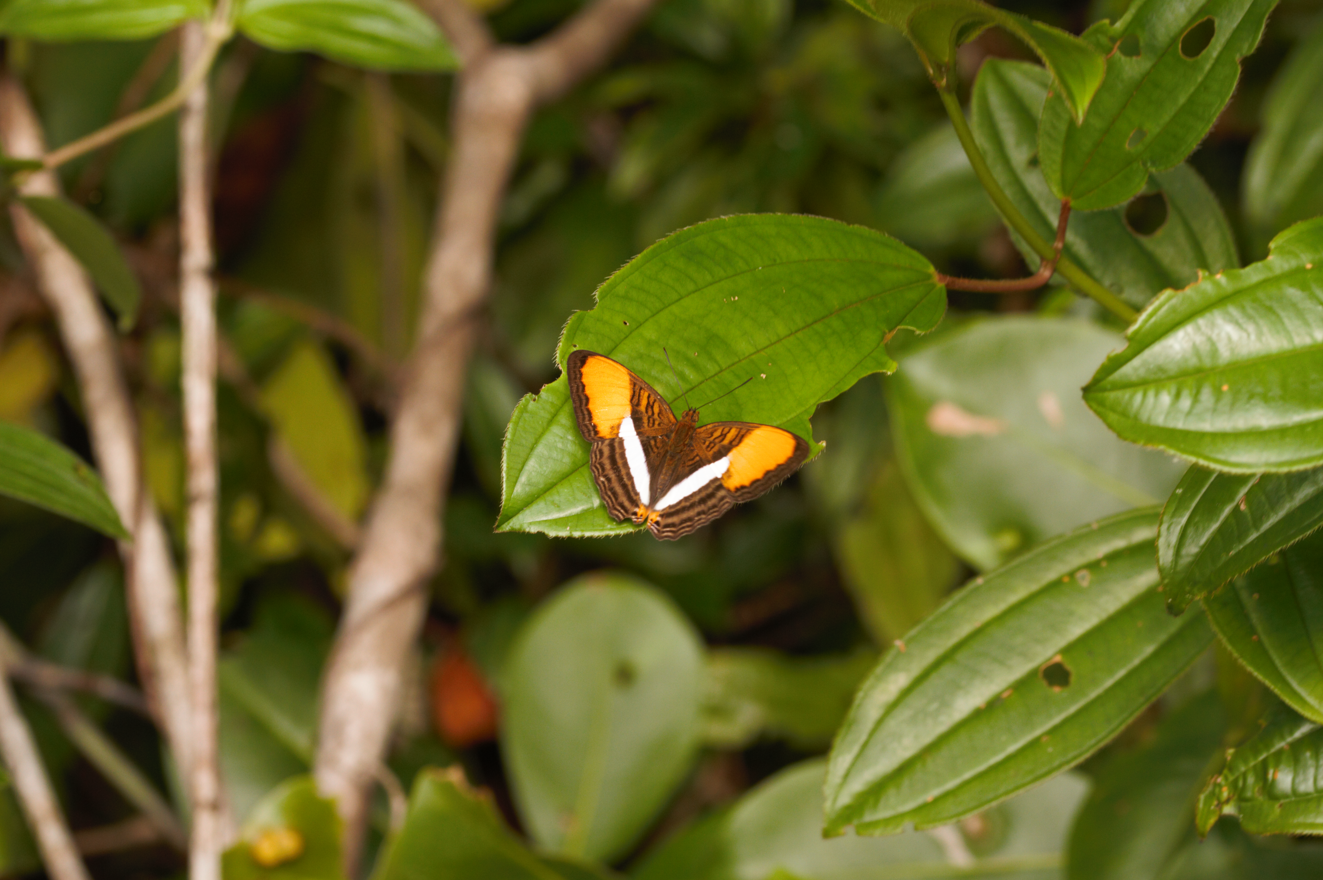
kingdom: Animalia
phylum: Arthropoda
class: Insecta
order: Lepidoptera
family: Nymphalidae
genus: Limenitis
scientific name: Limenitis cytherea
